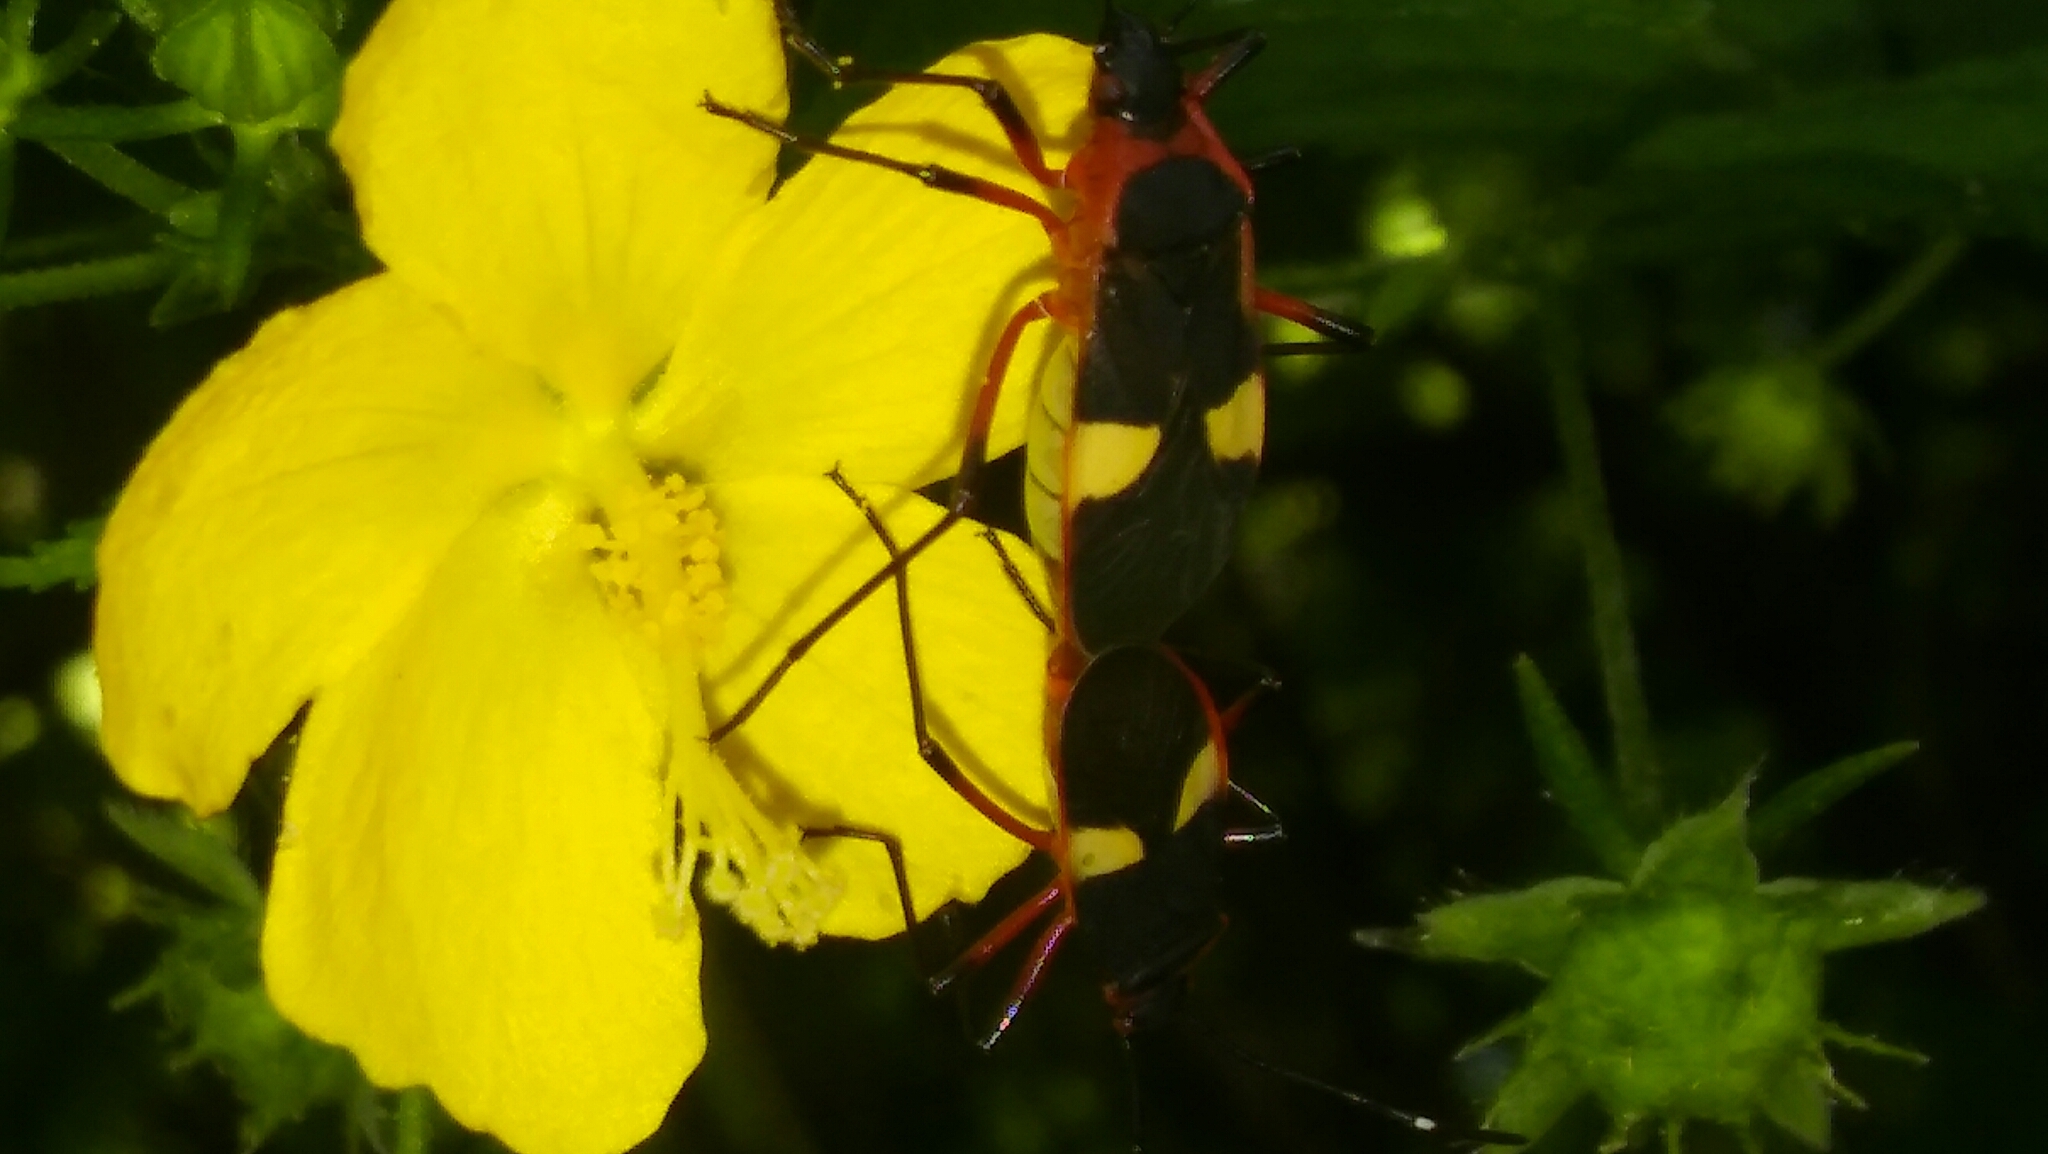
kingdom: Animalia
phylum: Arthropoda
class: Insecta
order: Hemiptera
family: Pyrrhocoridae
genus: Dysdercus
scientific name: Dysdercus albofasciatus
